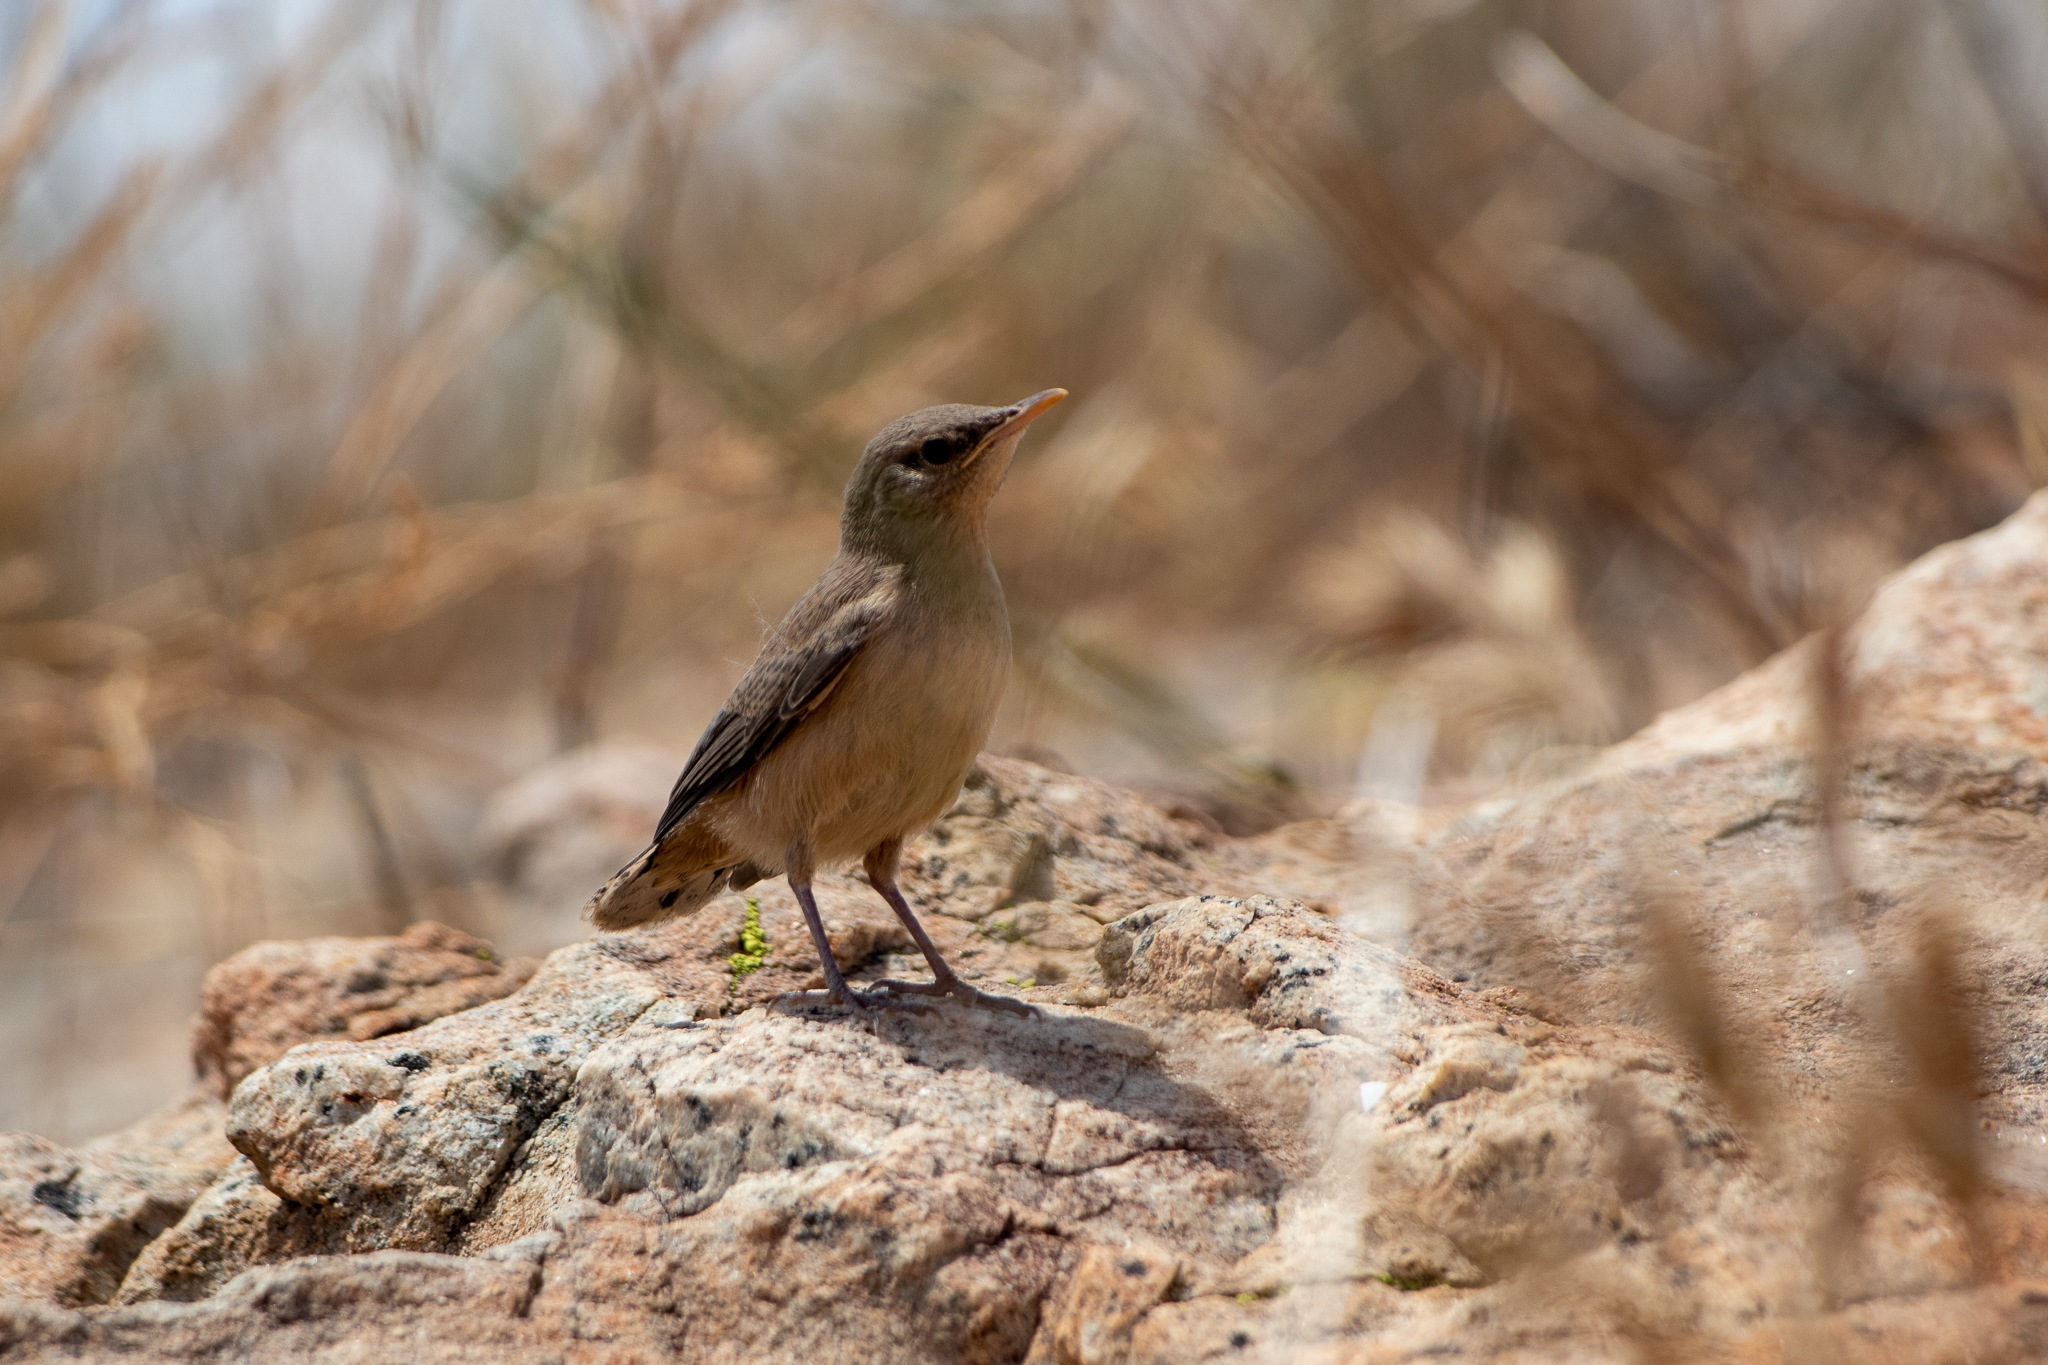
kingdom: Animalia
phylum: Chordata
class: Aves
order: Passeriformes
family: Troglodytidae
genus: Salpinctes
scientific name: Salpinctes obsoletus
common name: Rock wren
